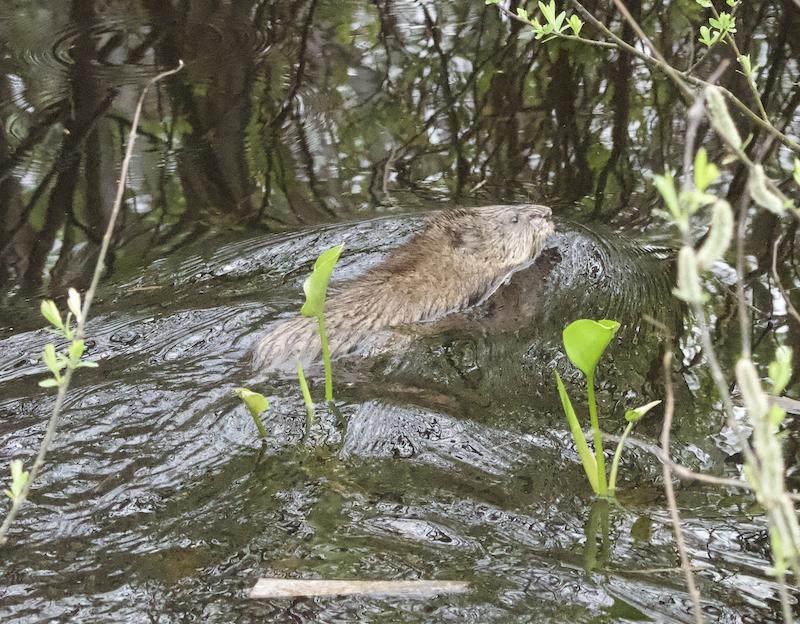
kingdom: Animalia
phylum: Chordata
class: Mammalia
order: Rodentia
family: Cricetidae
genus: Ondatra
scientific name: Ondatra zibethicus
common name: Muskrat
